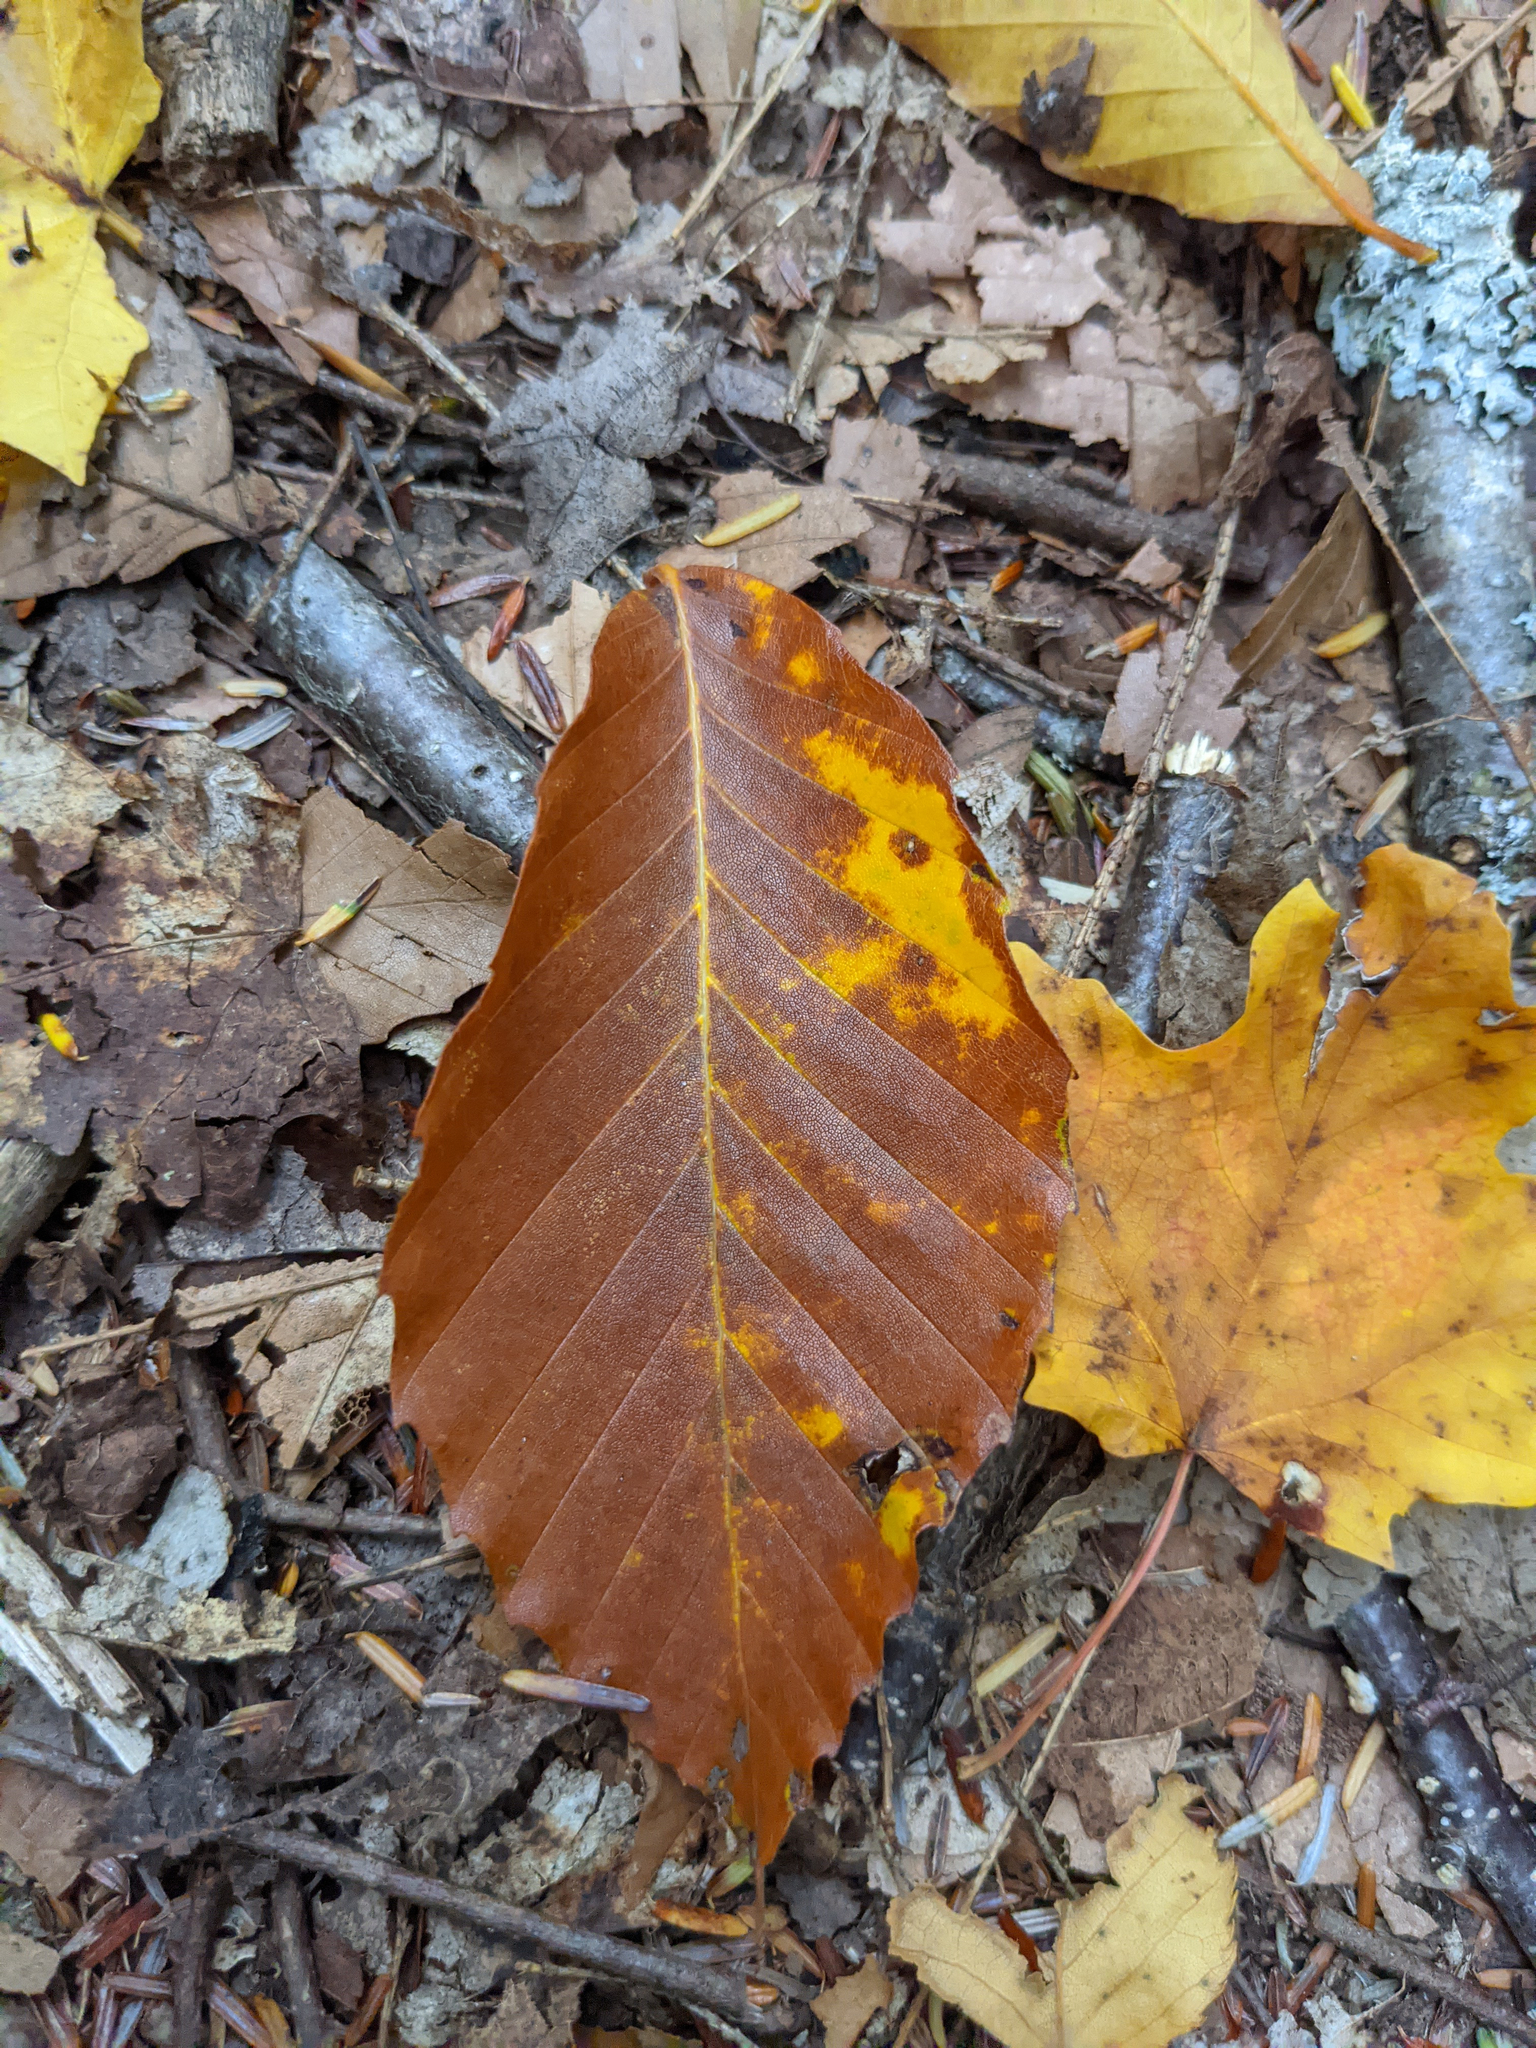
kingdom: Plantae
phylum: Tracheophyta
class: Magnoliopsida
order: Fagales
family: Fagaceae
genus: Fagus
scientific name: Fagus grandifolia
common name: American beech
